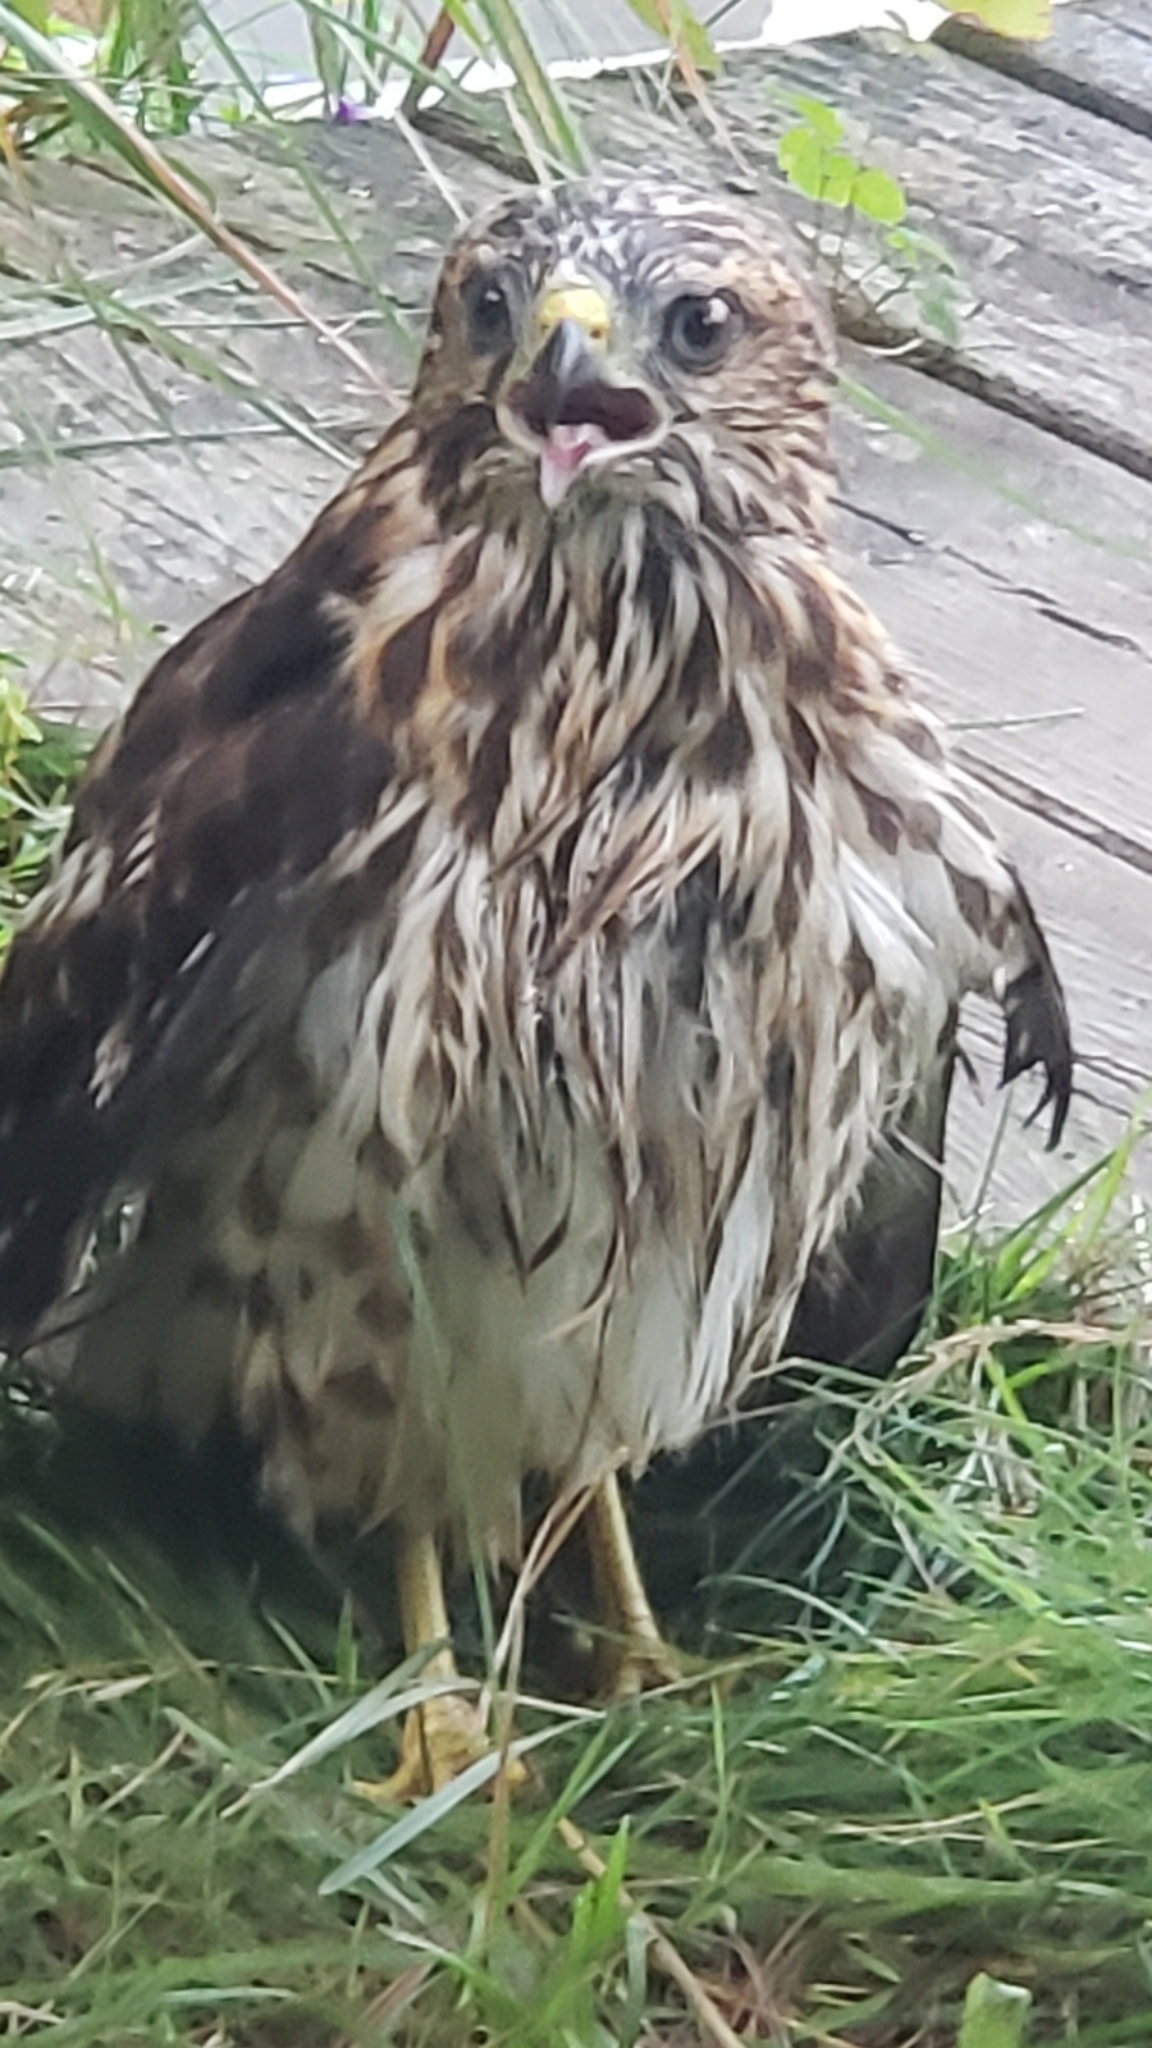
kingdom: Animalia
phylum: Chordata
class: Aves
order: Accipitriformes
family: Accipitridae
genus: Buteo
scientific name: Buteo platypterus
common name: Broad-winged hawk
